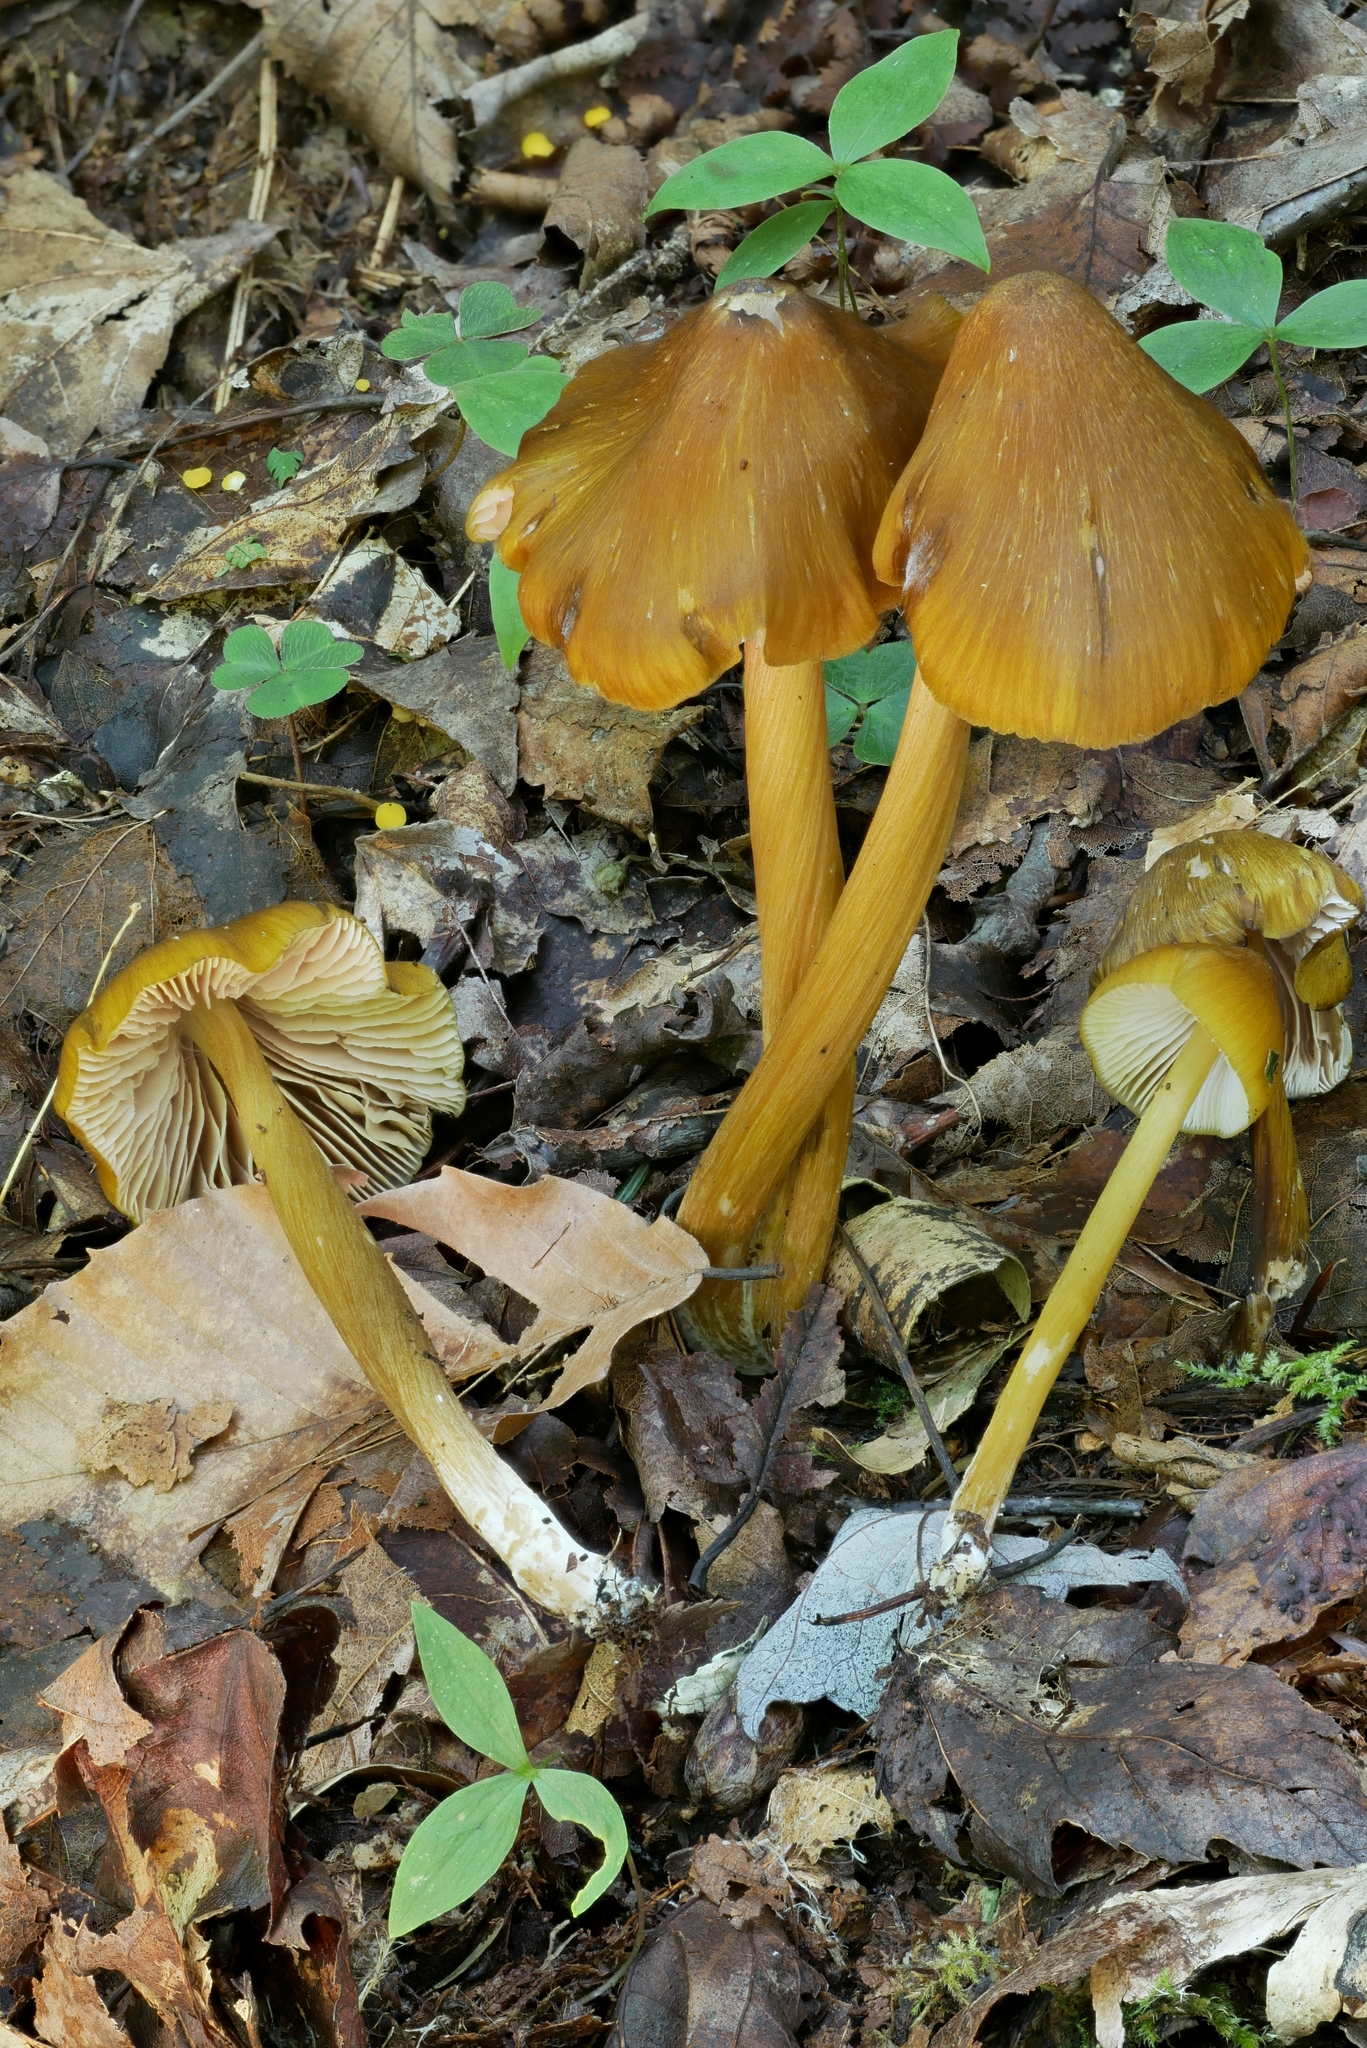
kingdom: Fungi
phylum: Basidiomycota
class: Agaricomycetes
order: Agaricales
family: Entolomataceae
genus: Entoloma
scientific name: Entoloma luteum
